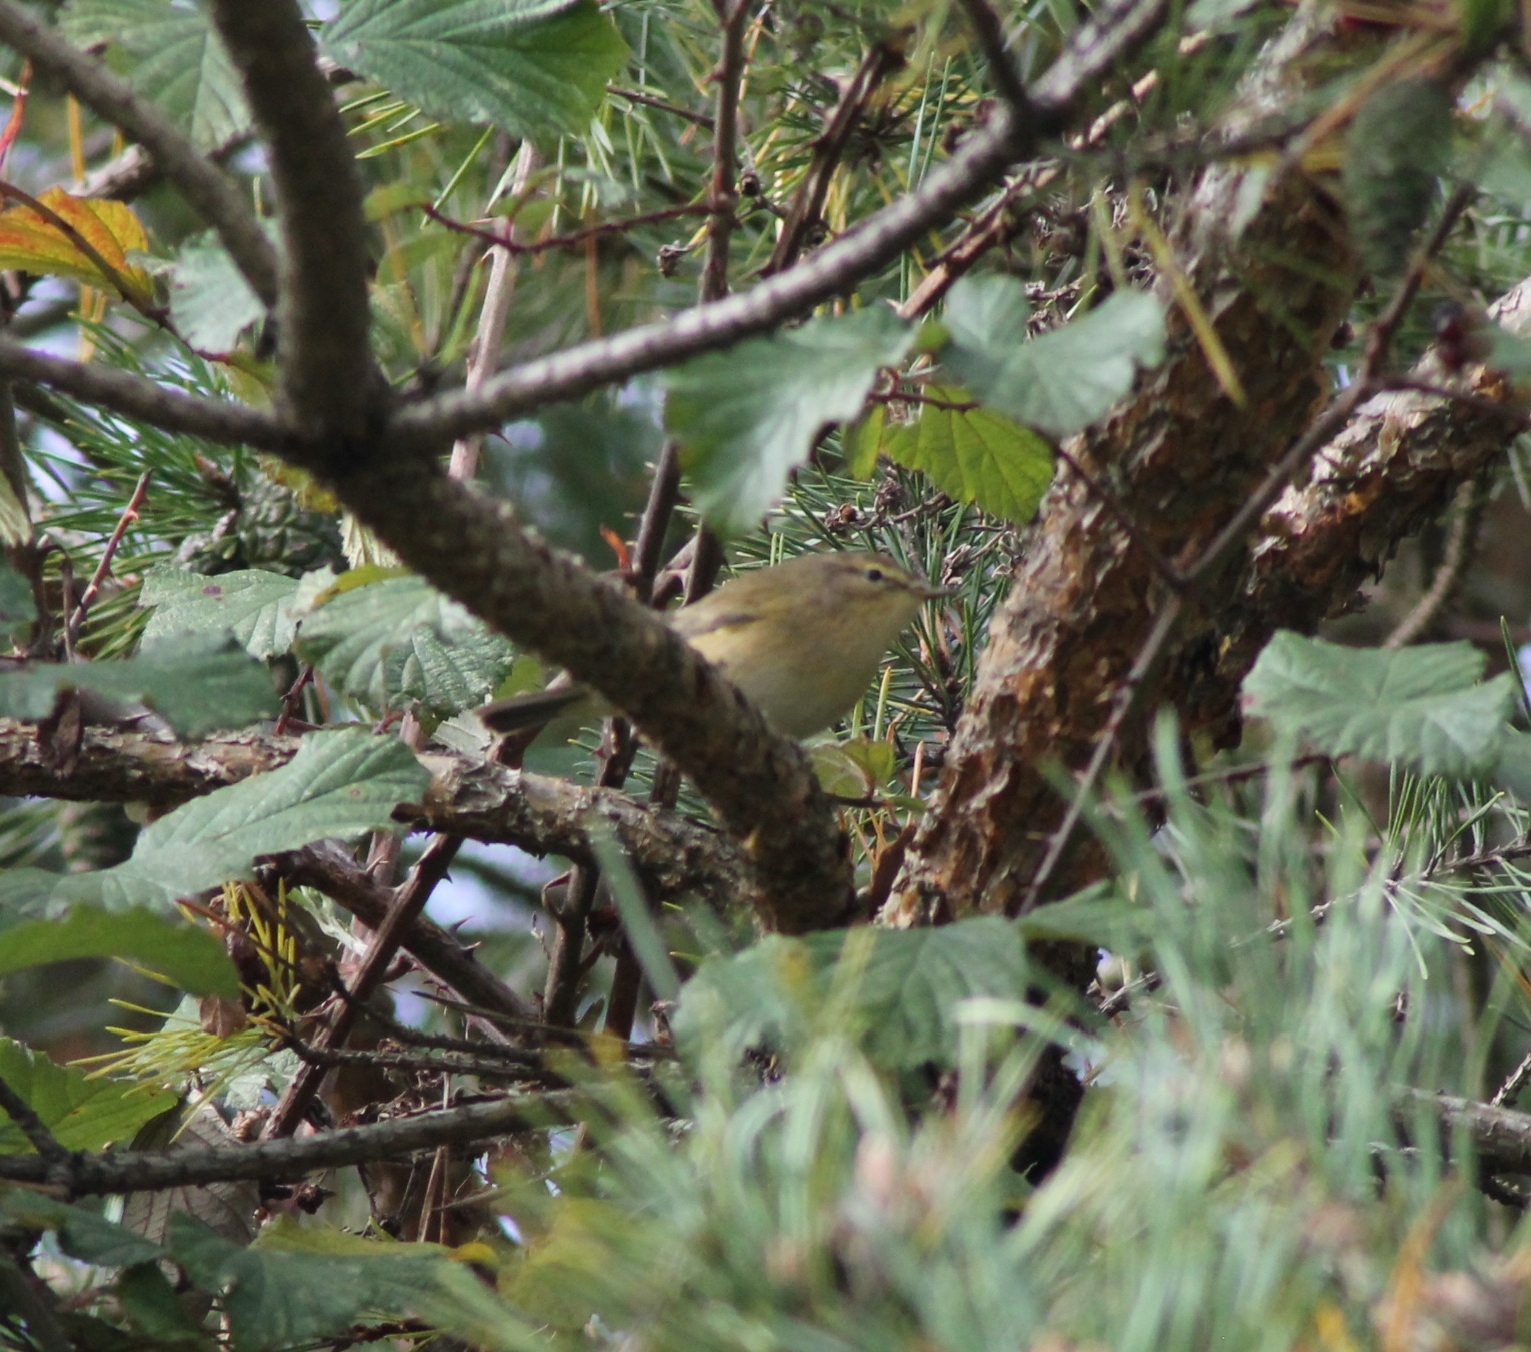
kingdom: Animalia
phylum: Chordata
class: Aves
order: Passeriformes
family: Phylloscopidae
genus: Phylloscopus
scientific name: Phylloscopus collybita
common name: Common chiffchaff
